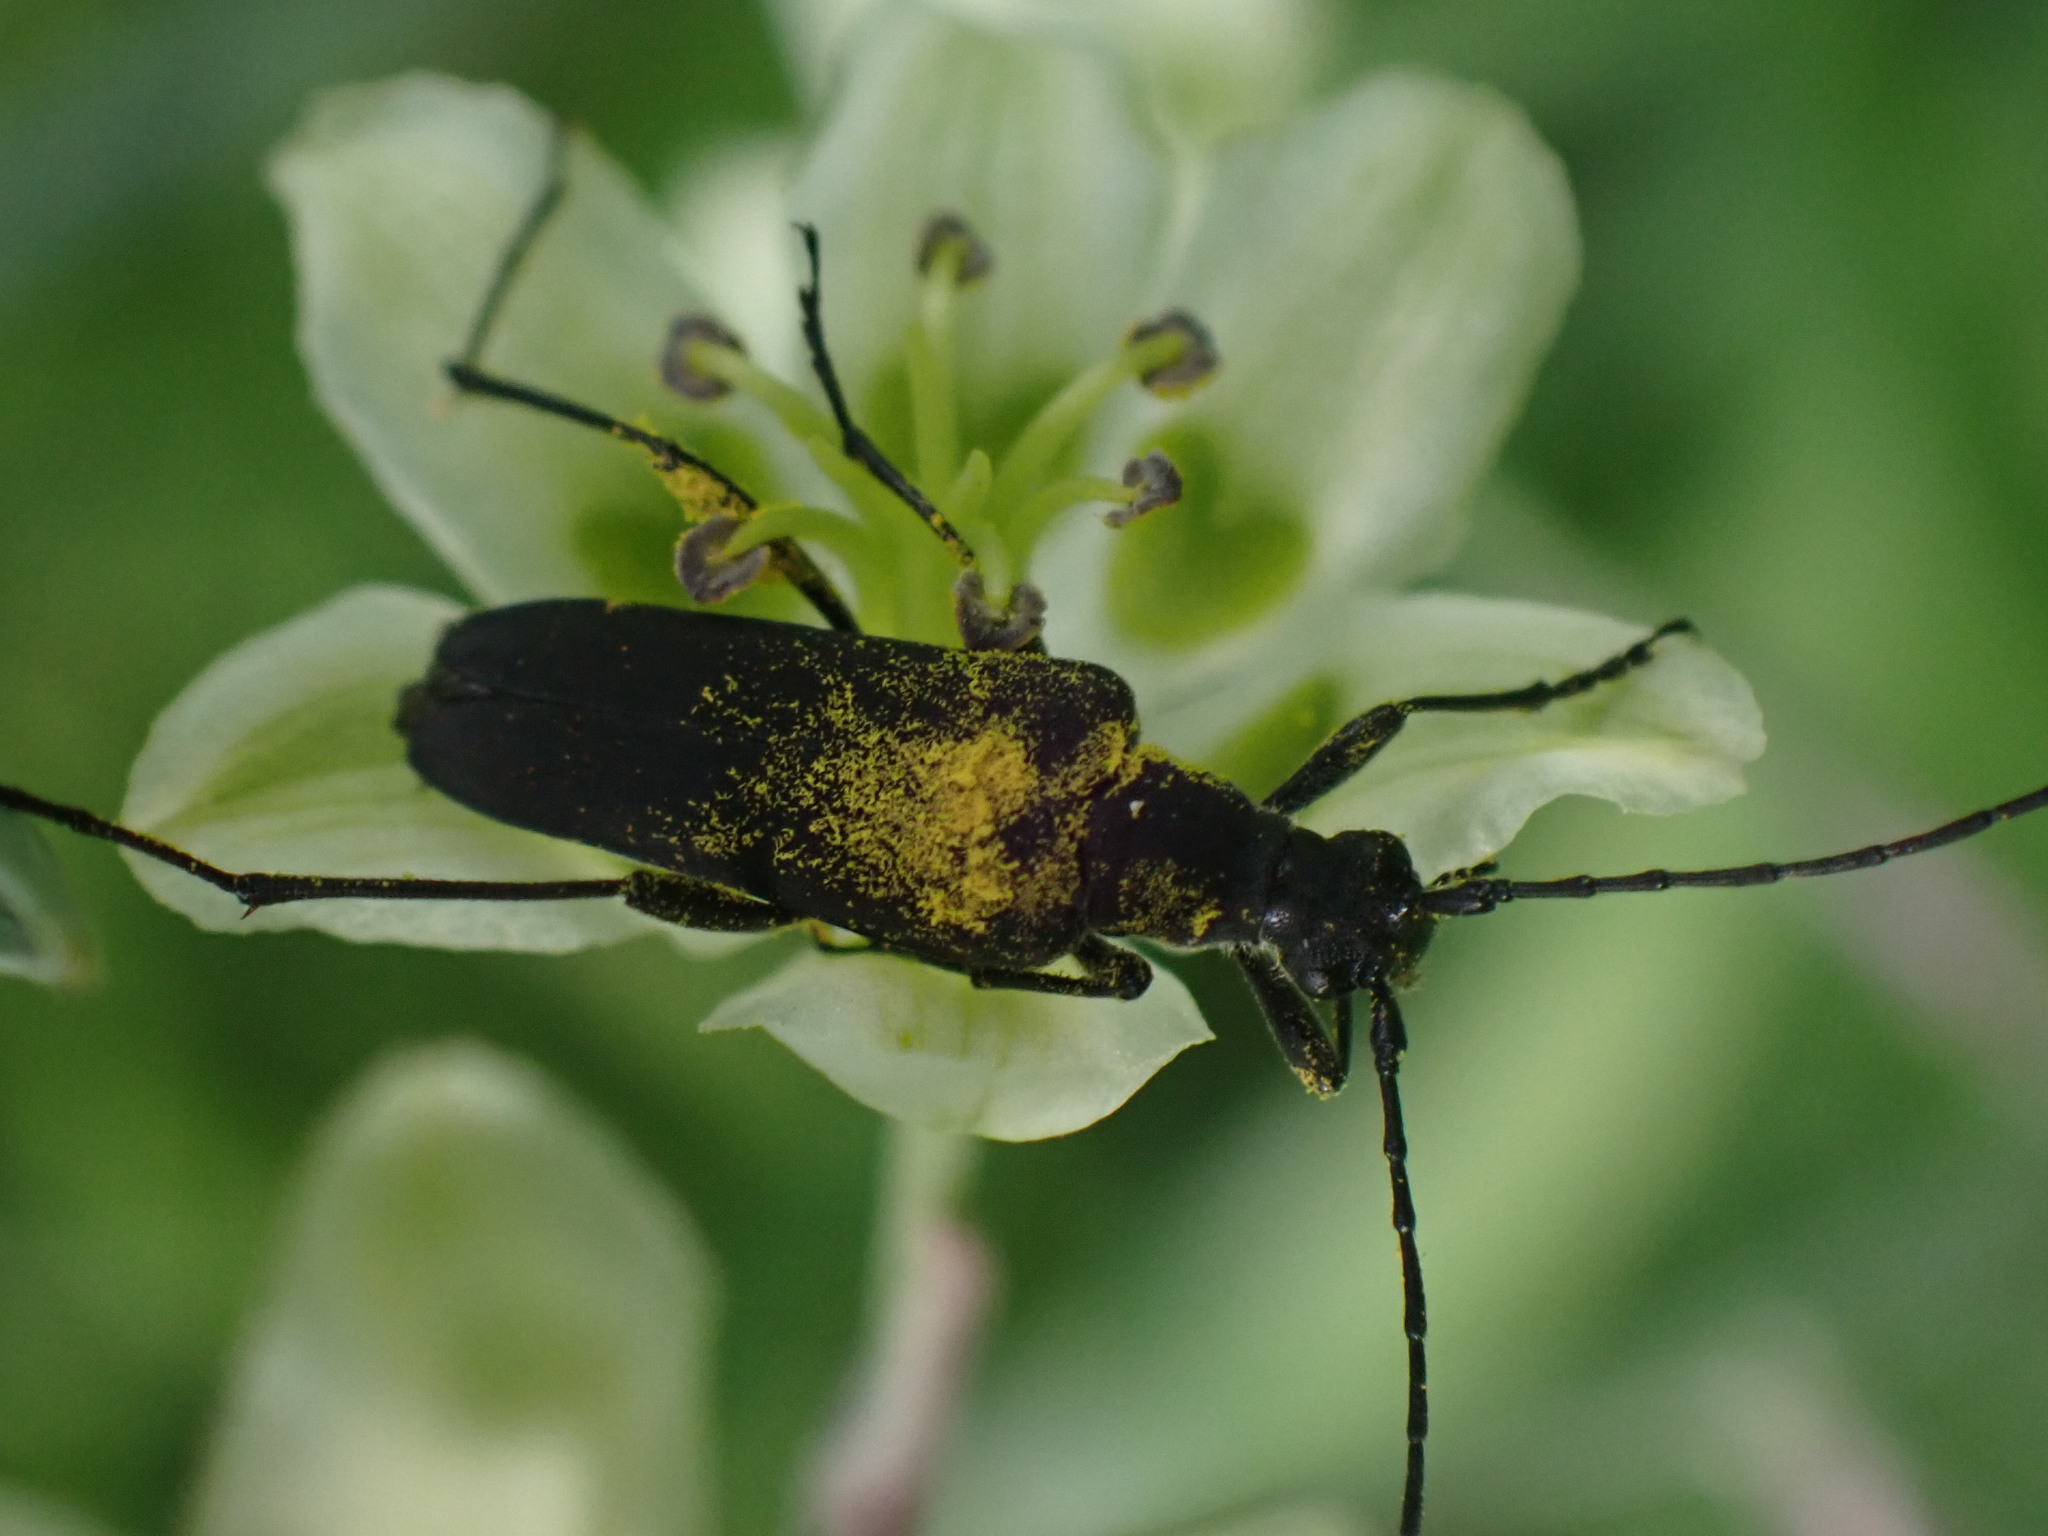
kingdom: Animalia
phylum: Arthropoda
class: Insecta
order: Coleoptera
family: Cerambycidae
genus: Trachysida
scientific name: Trachysida aspera
